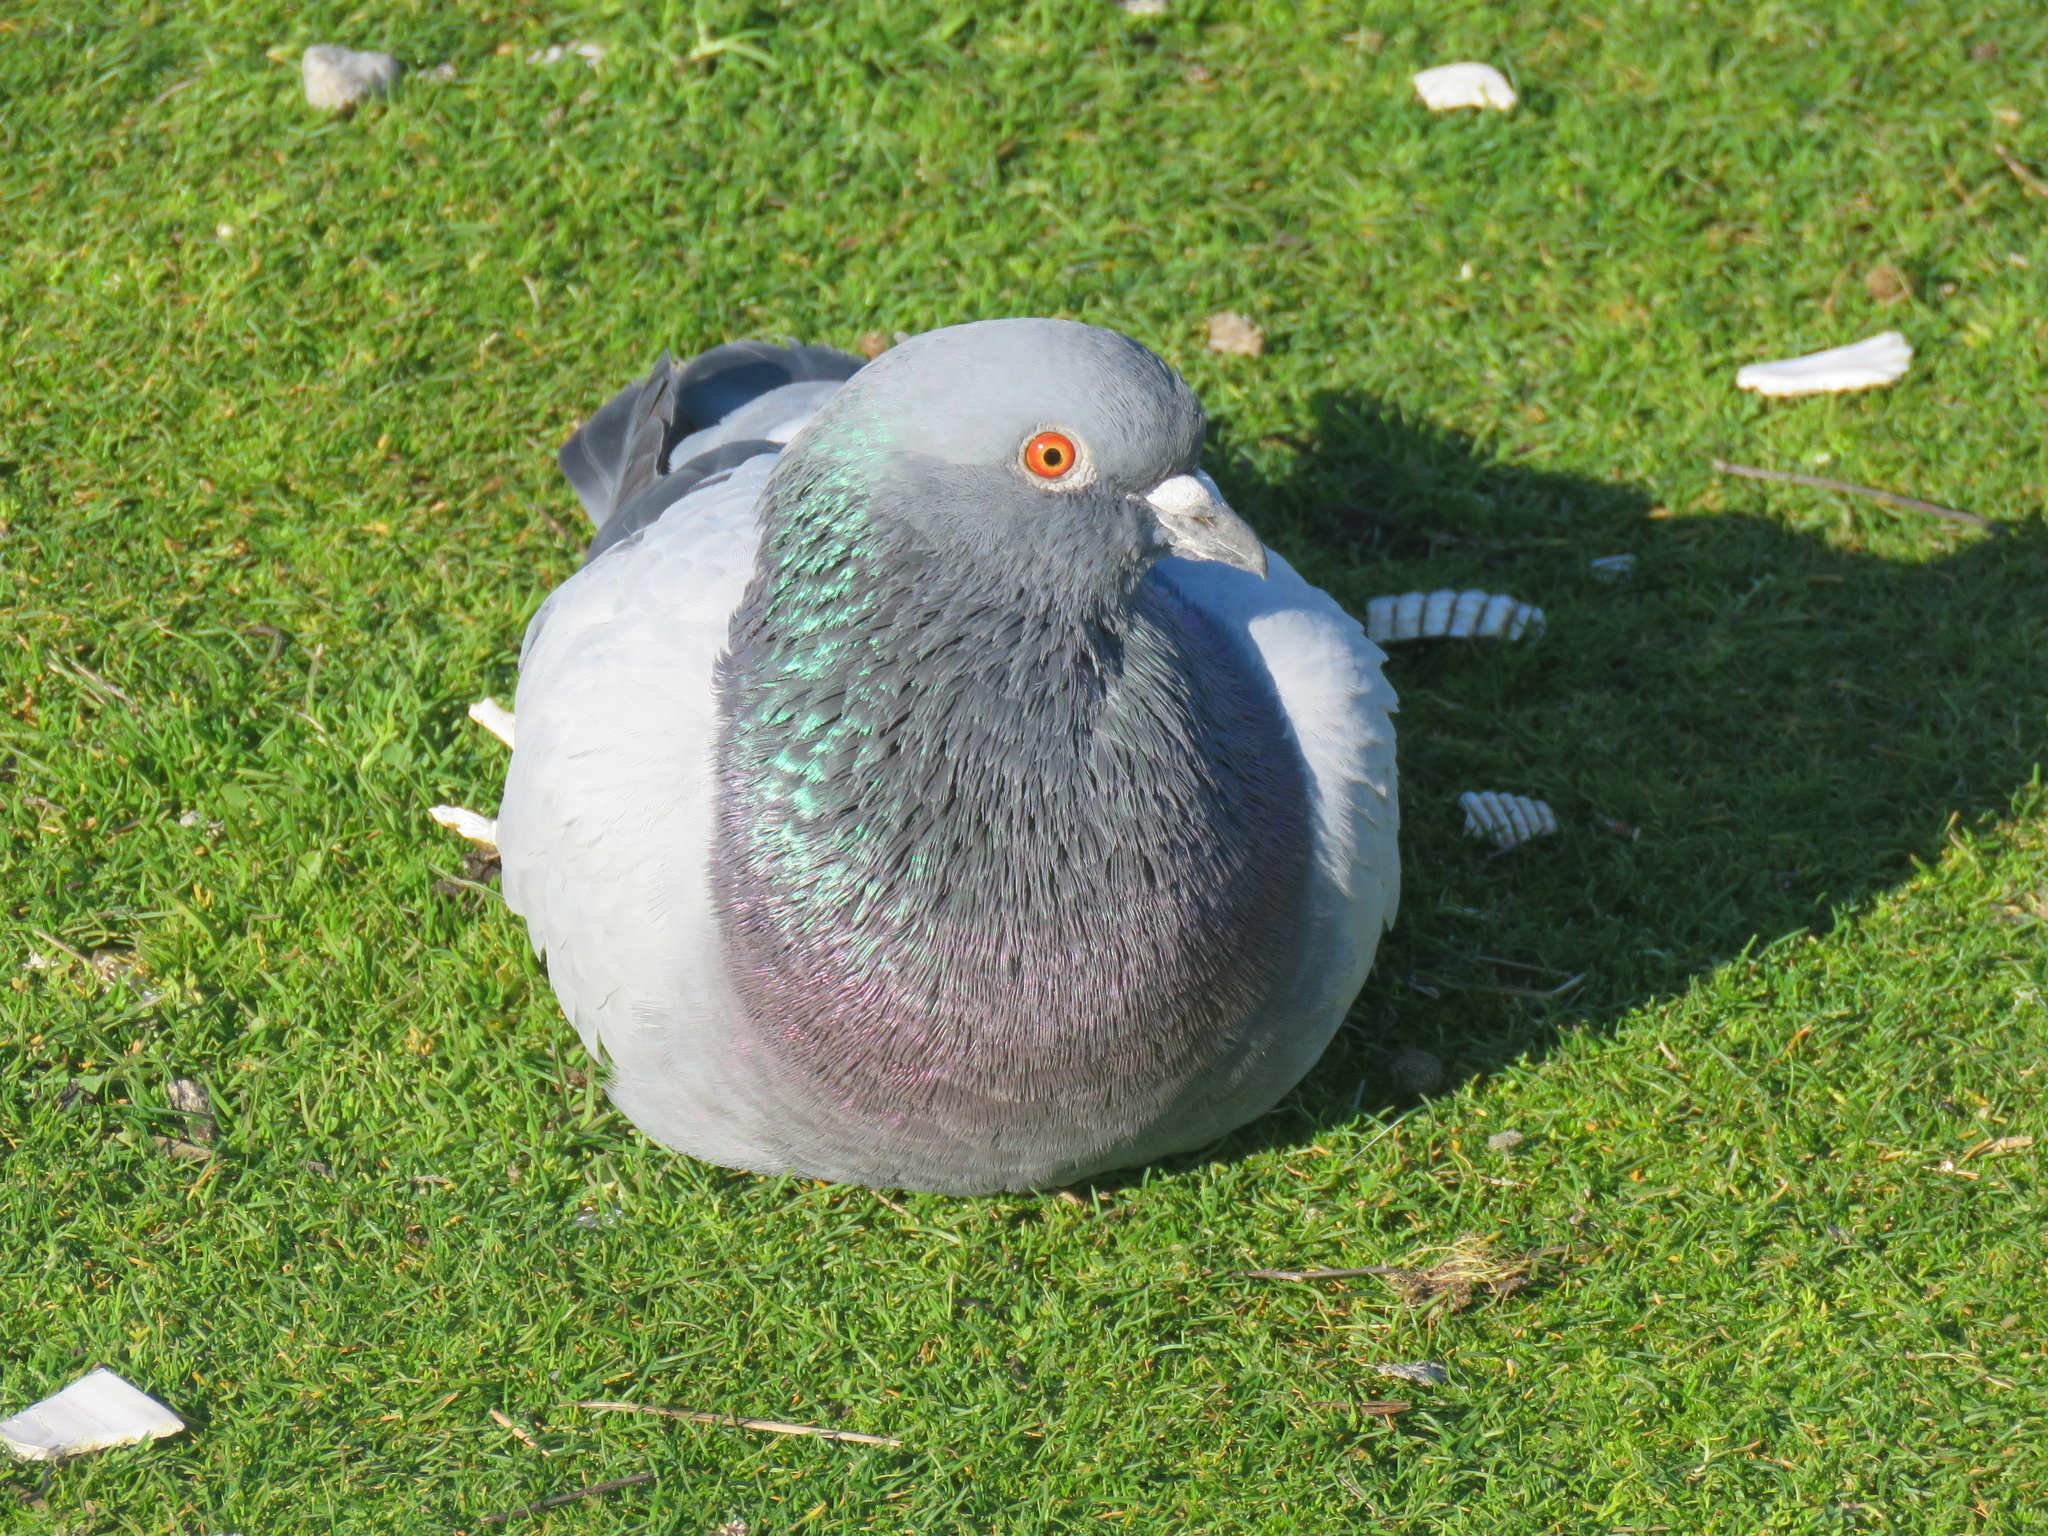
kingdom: Animalia
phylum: Chordata
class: Aves
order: Columbiformes
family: Columbidae
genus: Columba
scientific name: Columba livia
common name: Rock pigeon
